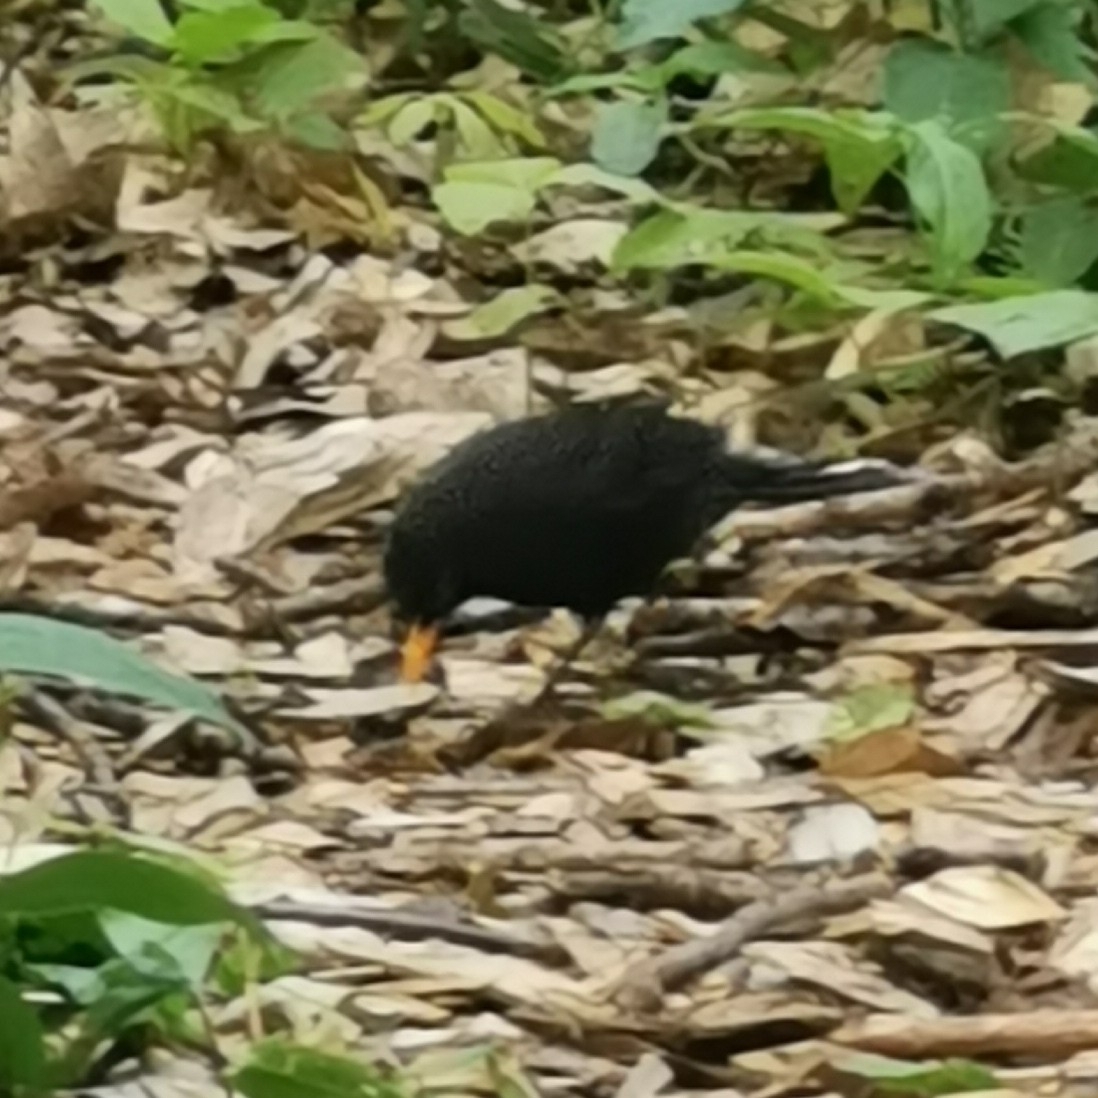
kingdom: Animalia
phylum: Chordata
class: Aves
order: Passeriformes
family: Turdidae
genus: Turdus
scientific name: Turdus merula
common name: Common blackbird
